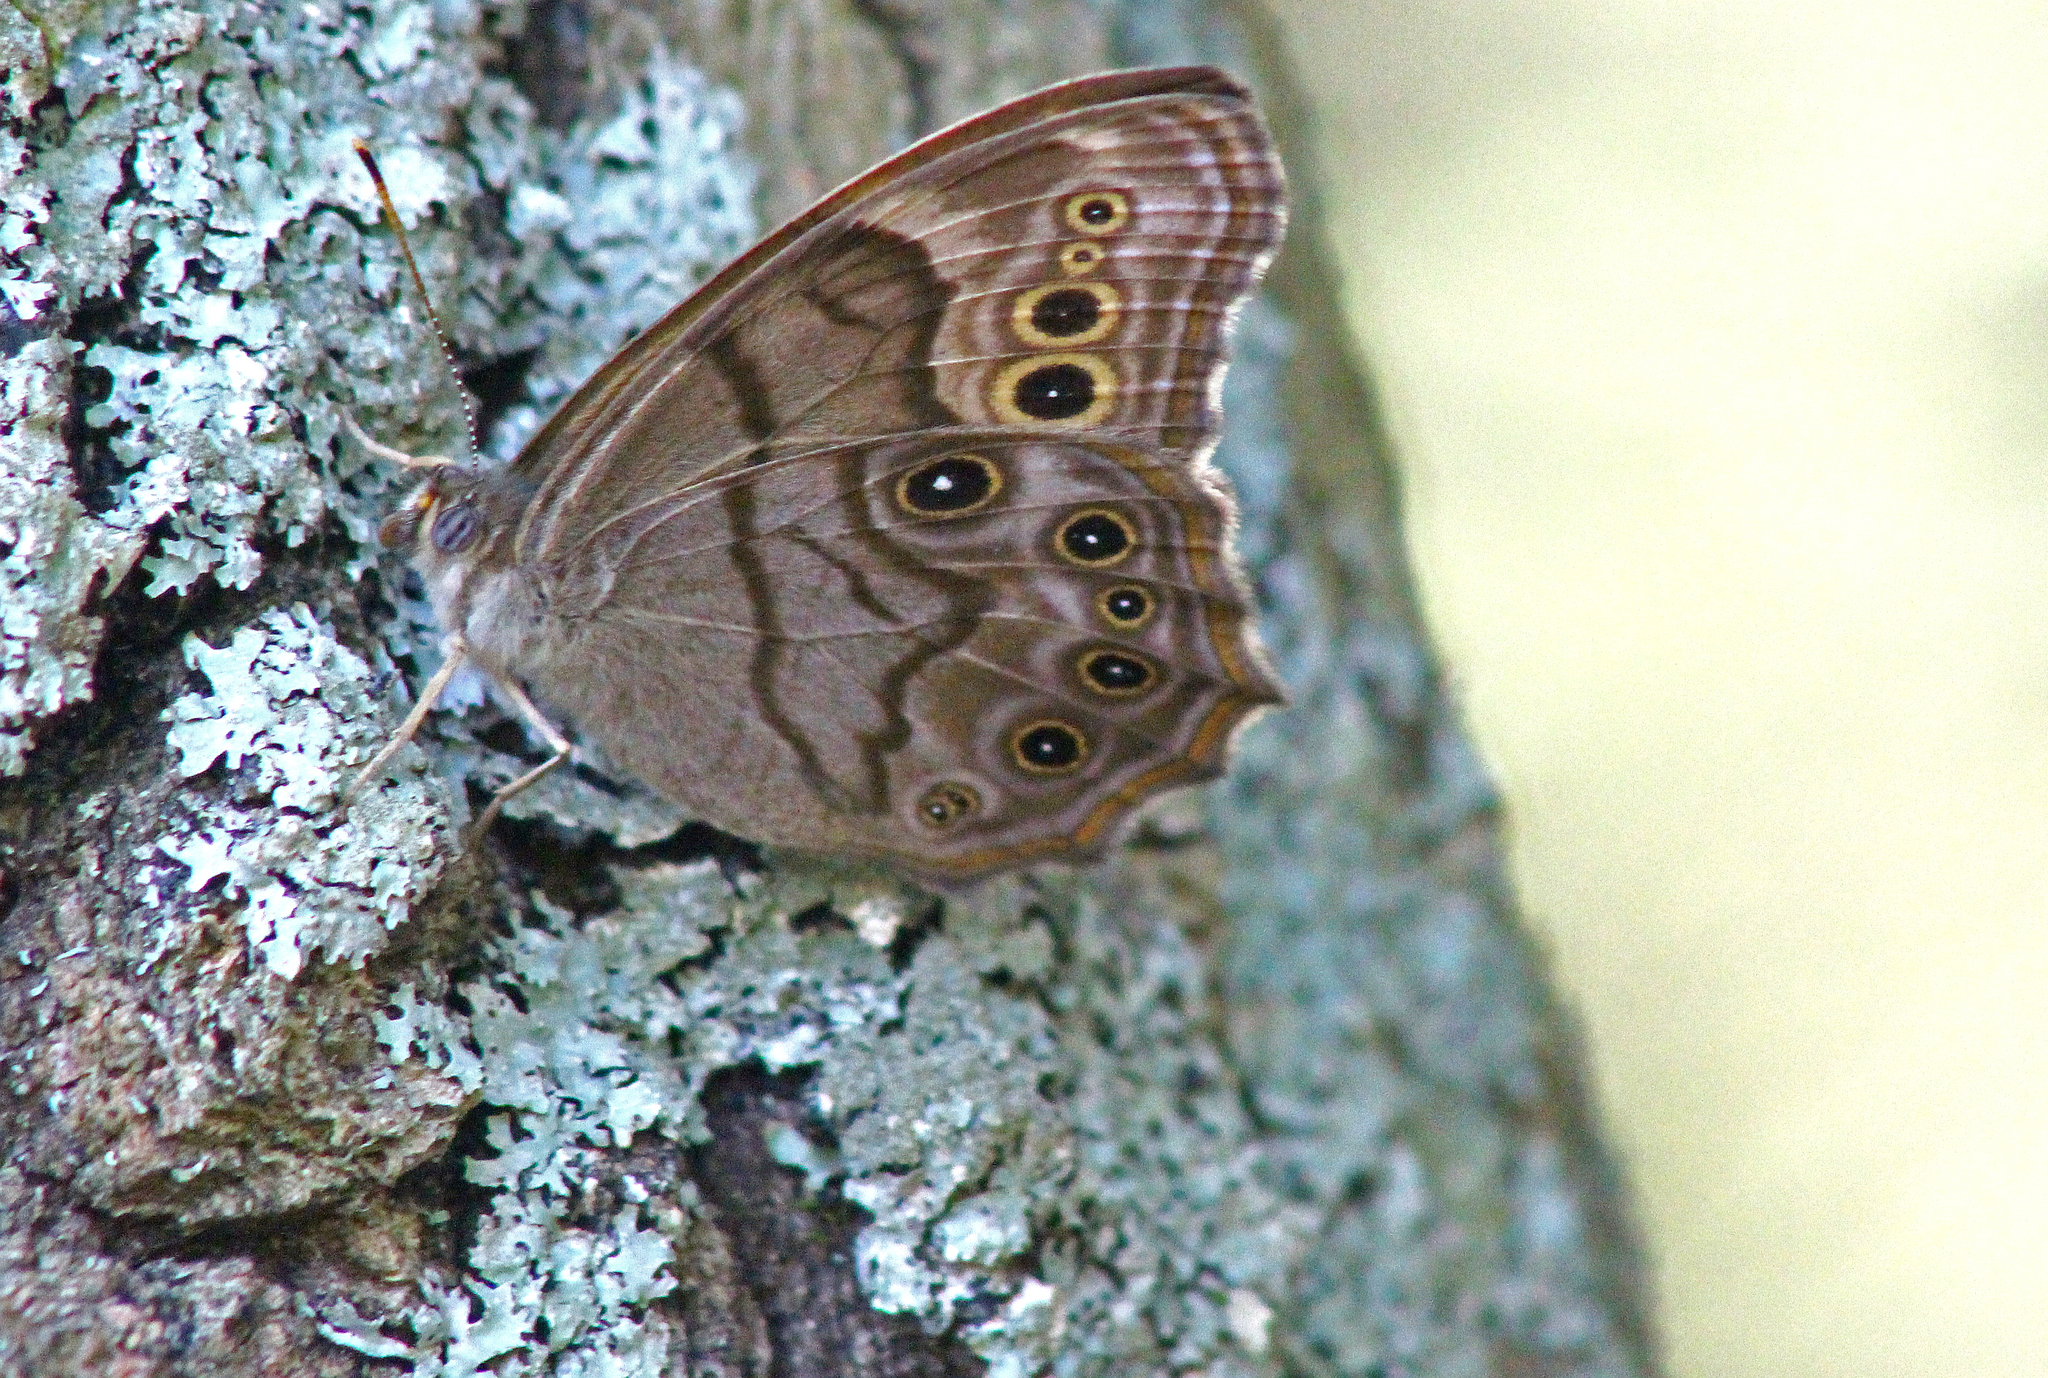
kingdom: Animalia
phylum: Arthropoda
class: Insecta
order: Lepidoptera
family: Nymphalidae
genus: Lethe
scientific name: Lethe anthedon
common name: Northern pearly-eye
